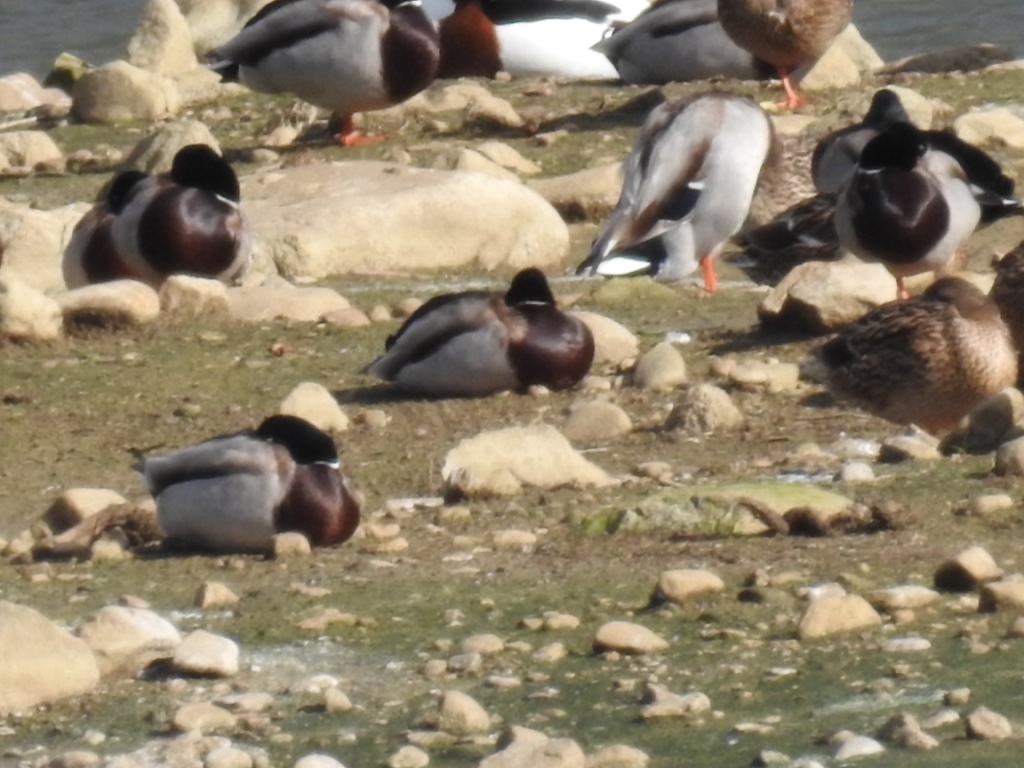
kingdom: Animalia
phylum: Chordata
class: Aves
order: Anseriformes
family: Anatidae
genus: Anas
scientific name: Anas platyrhynchos
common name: Mallard
